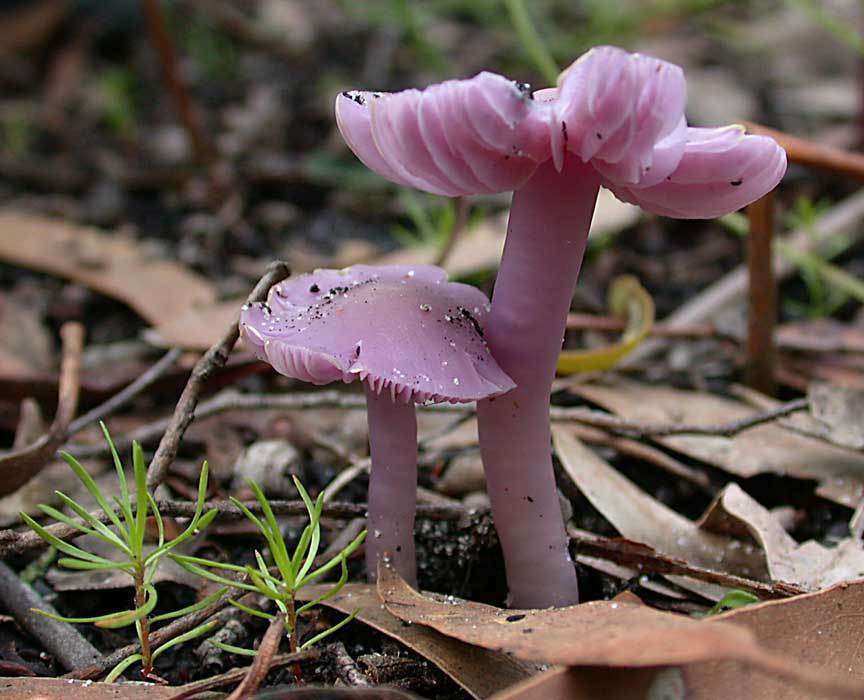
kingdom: Fungi
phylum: Basidiomycota
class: Agaricomycetes
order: Agaricales
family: Hygrophoraceae
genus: Porpolomopsis
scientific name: Porpolomopsis lewelliniae
